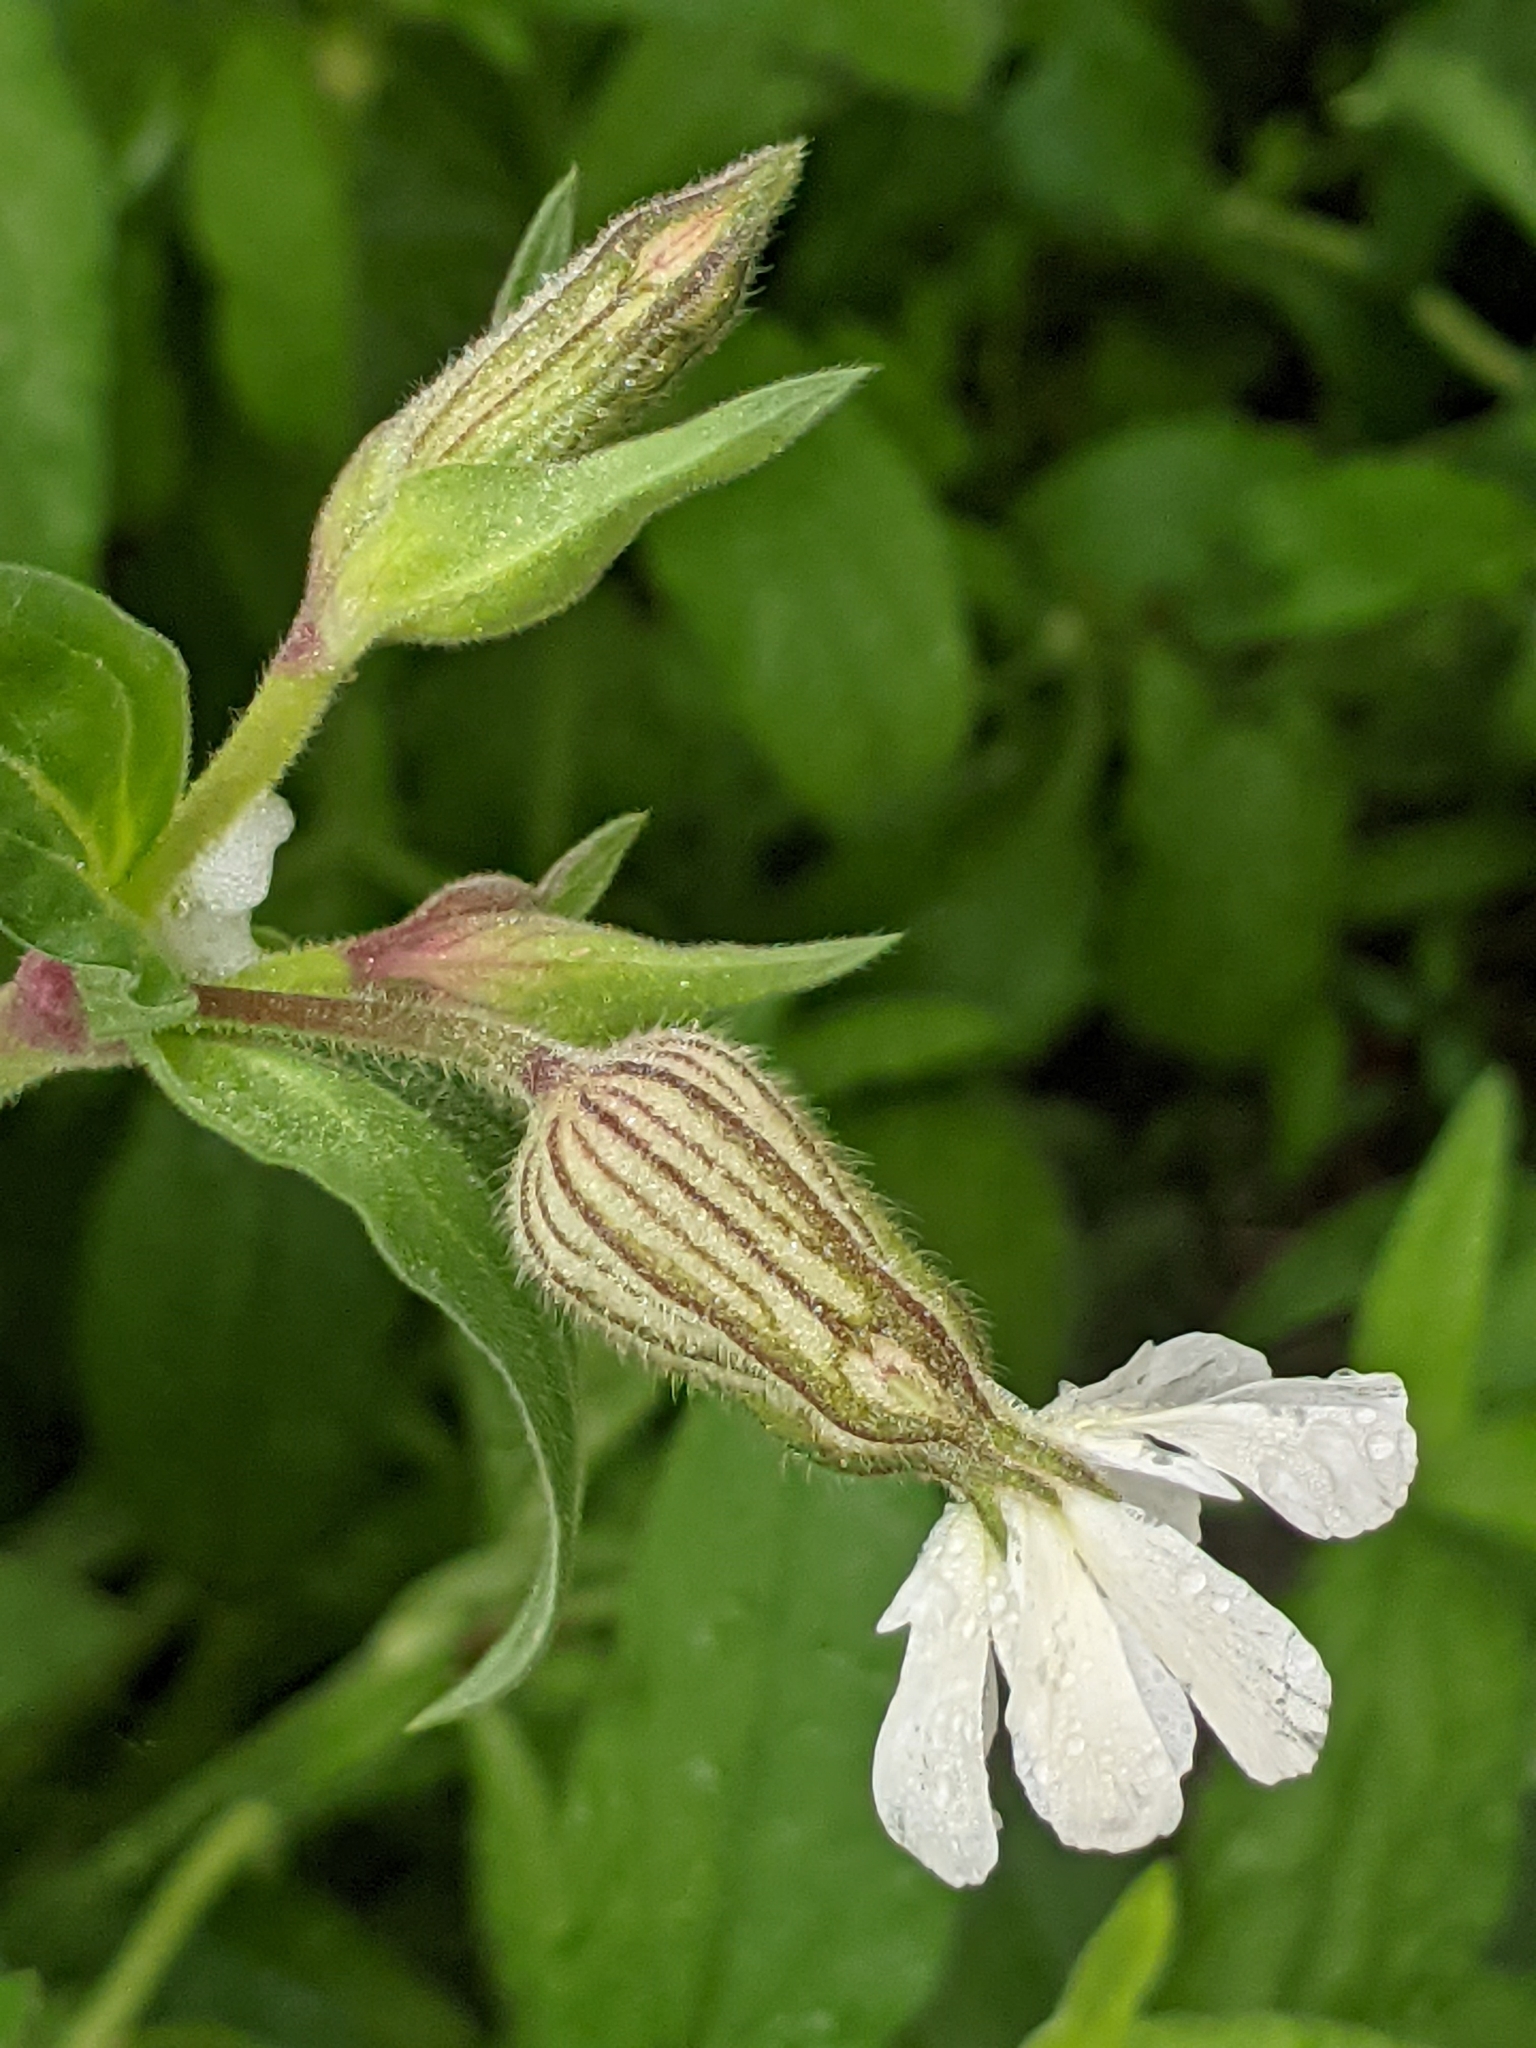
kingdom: Plantae
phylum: Tracheophyta
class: Magnoliopsida
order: Caryophyllales
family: Caryophyllaceae
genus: Silene
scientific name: Silene latifolia
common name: White campion
